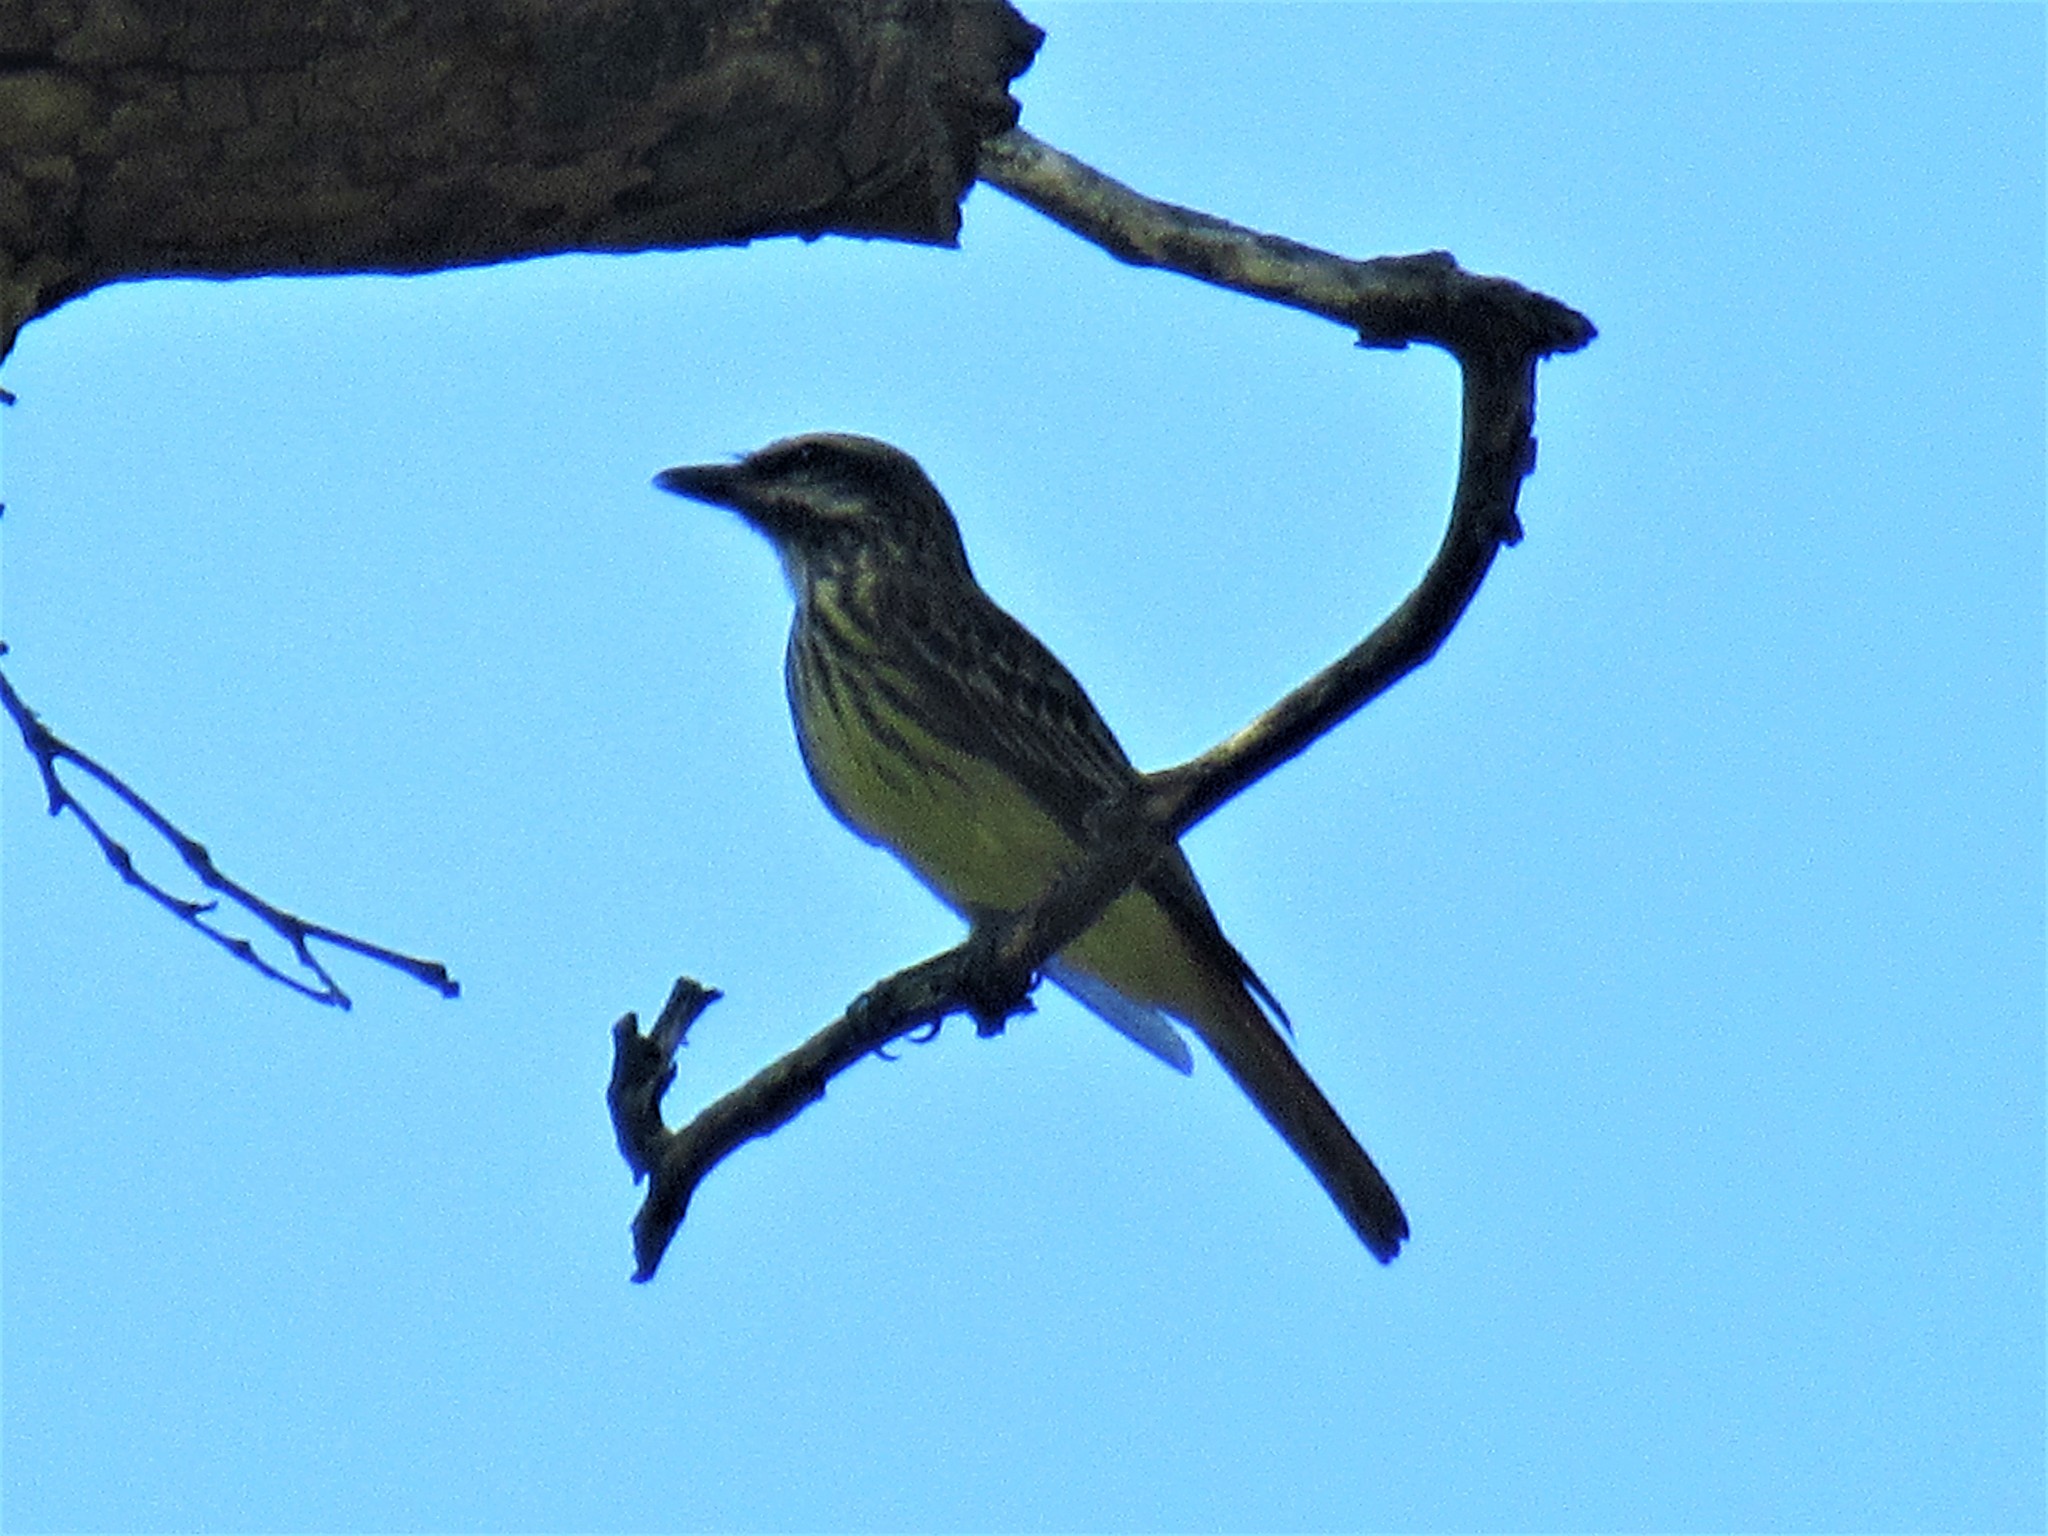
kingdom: Animalia
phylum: Chordata
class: Aves
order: Passeriformes
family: Tyrannidae
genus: Myiodynastes
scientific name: Myiodynastes luteiventris
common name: Sulphur-bellied flycatcher
